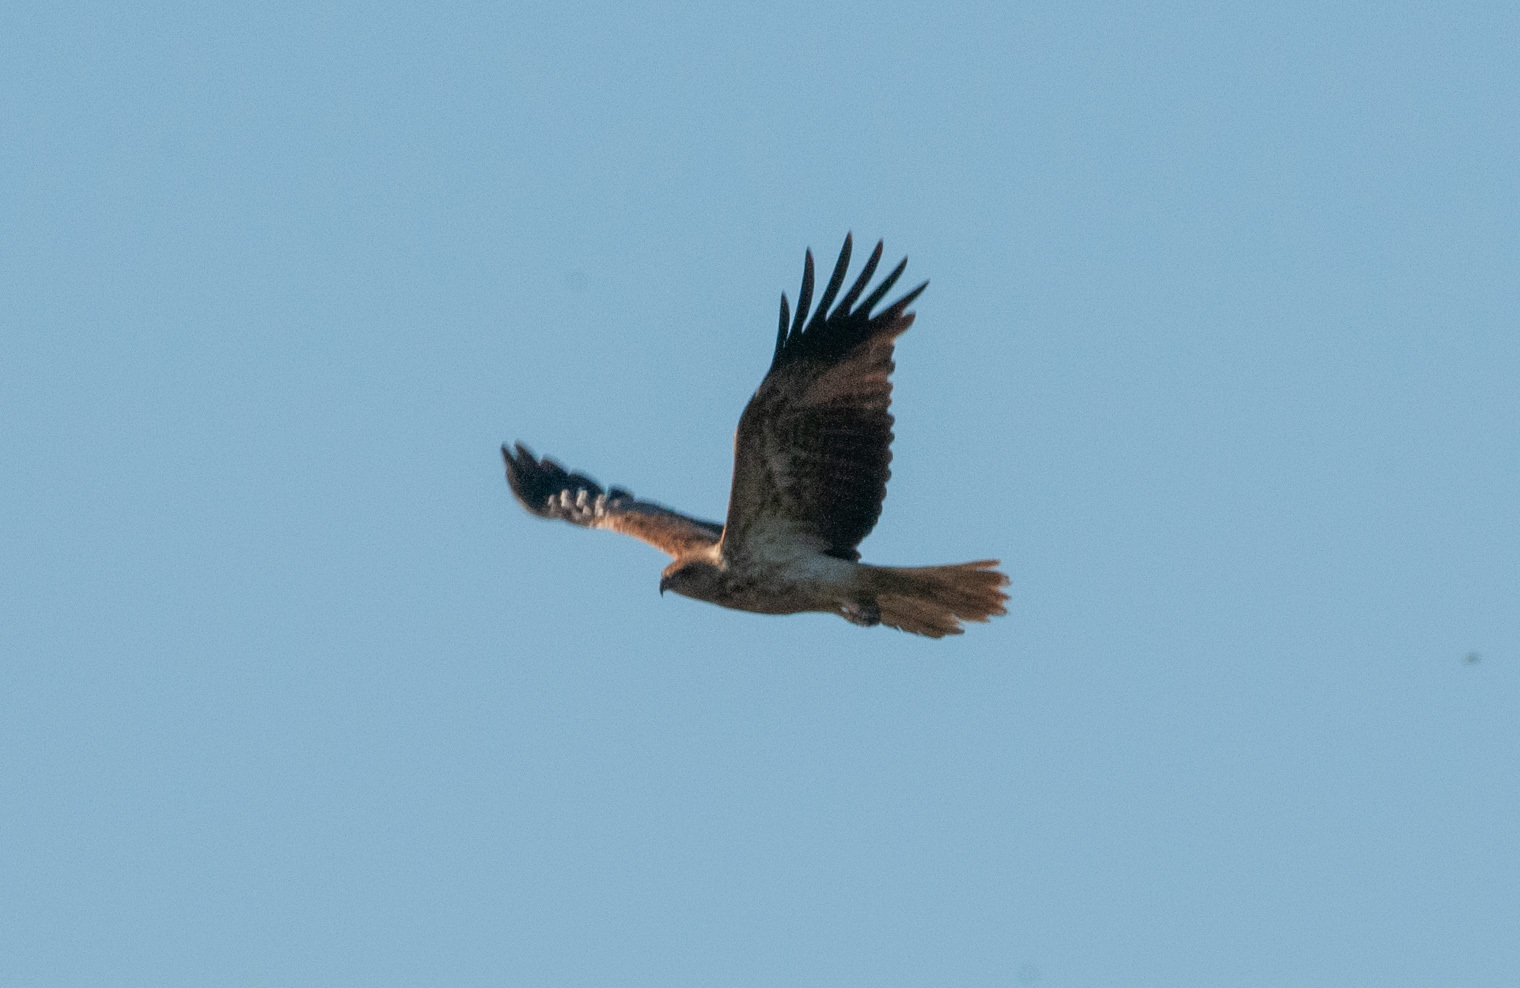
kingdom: Animalia
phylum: Chordata
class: Aves
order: Accipitriformes
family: Accipitridae
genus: Haliastur
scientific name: Haliastur sphenurus
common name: Whistling kite
